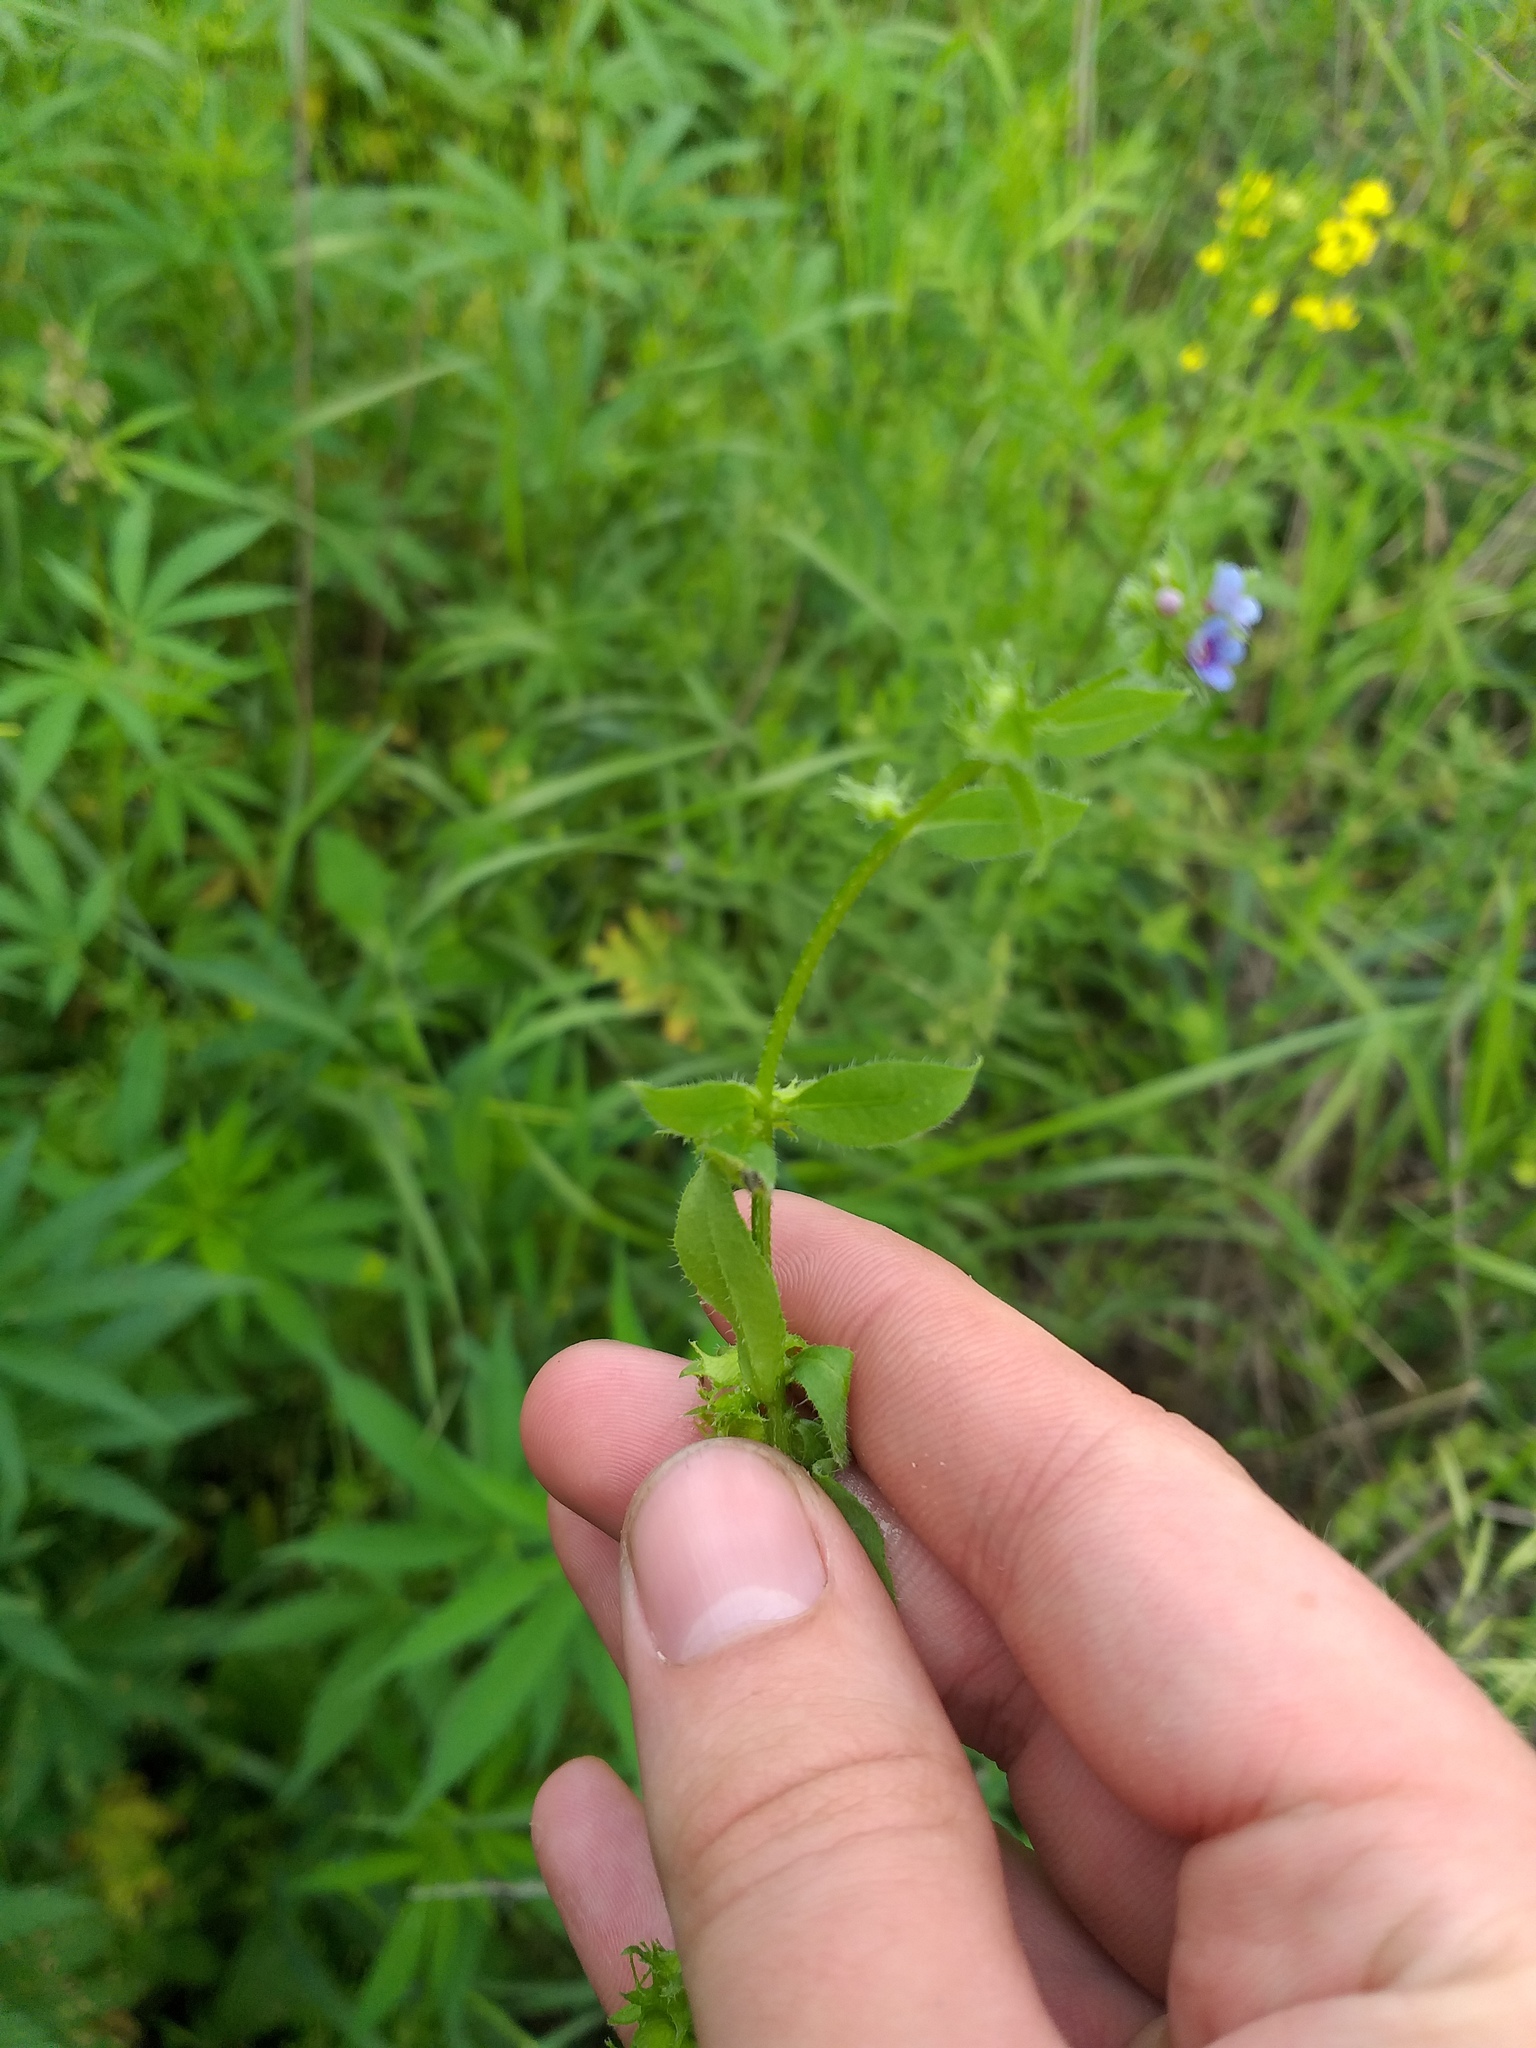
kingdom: Plantae
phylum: Tracheophyta
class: Magnoliopsida
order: Boraginales
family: Boraginaceae
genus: Asperugo
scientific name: Asperugo procumbens
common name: Madwort
